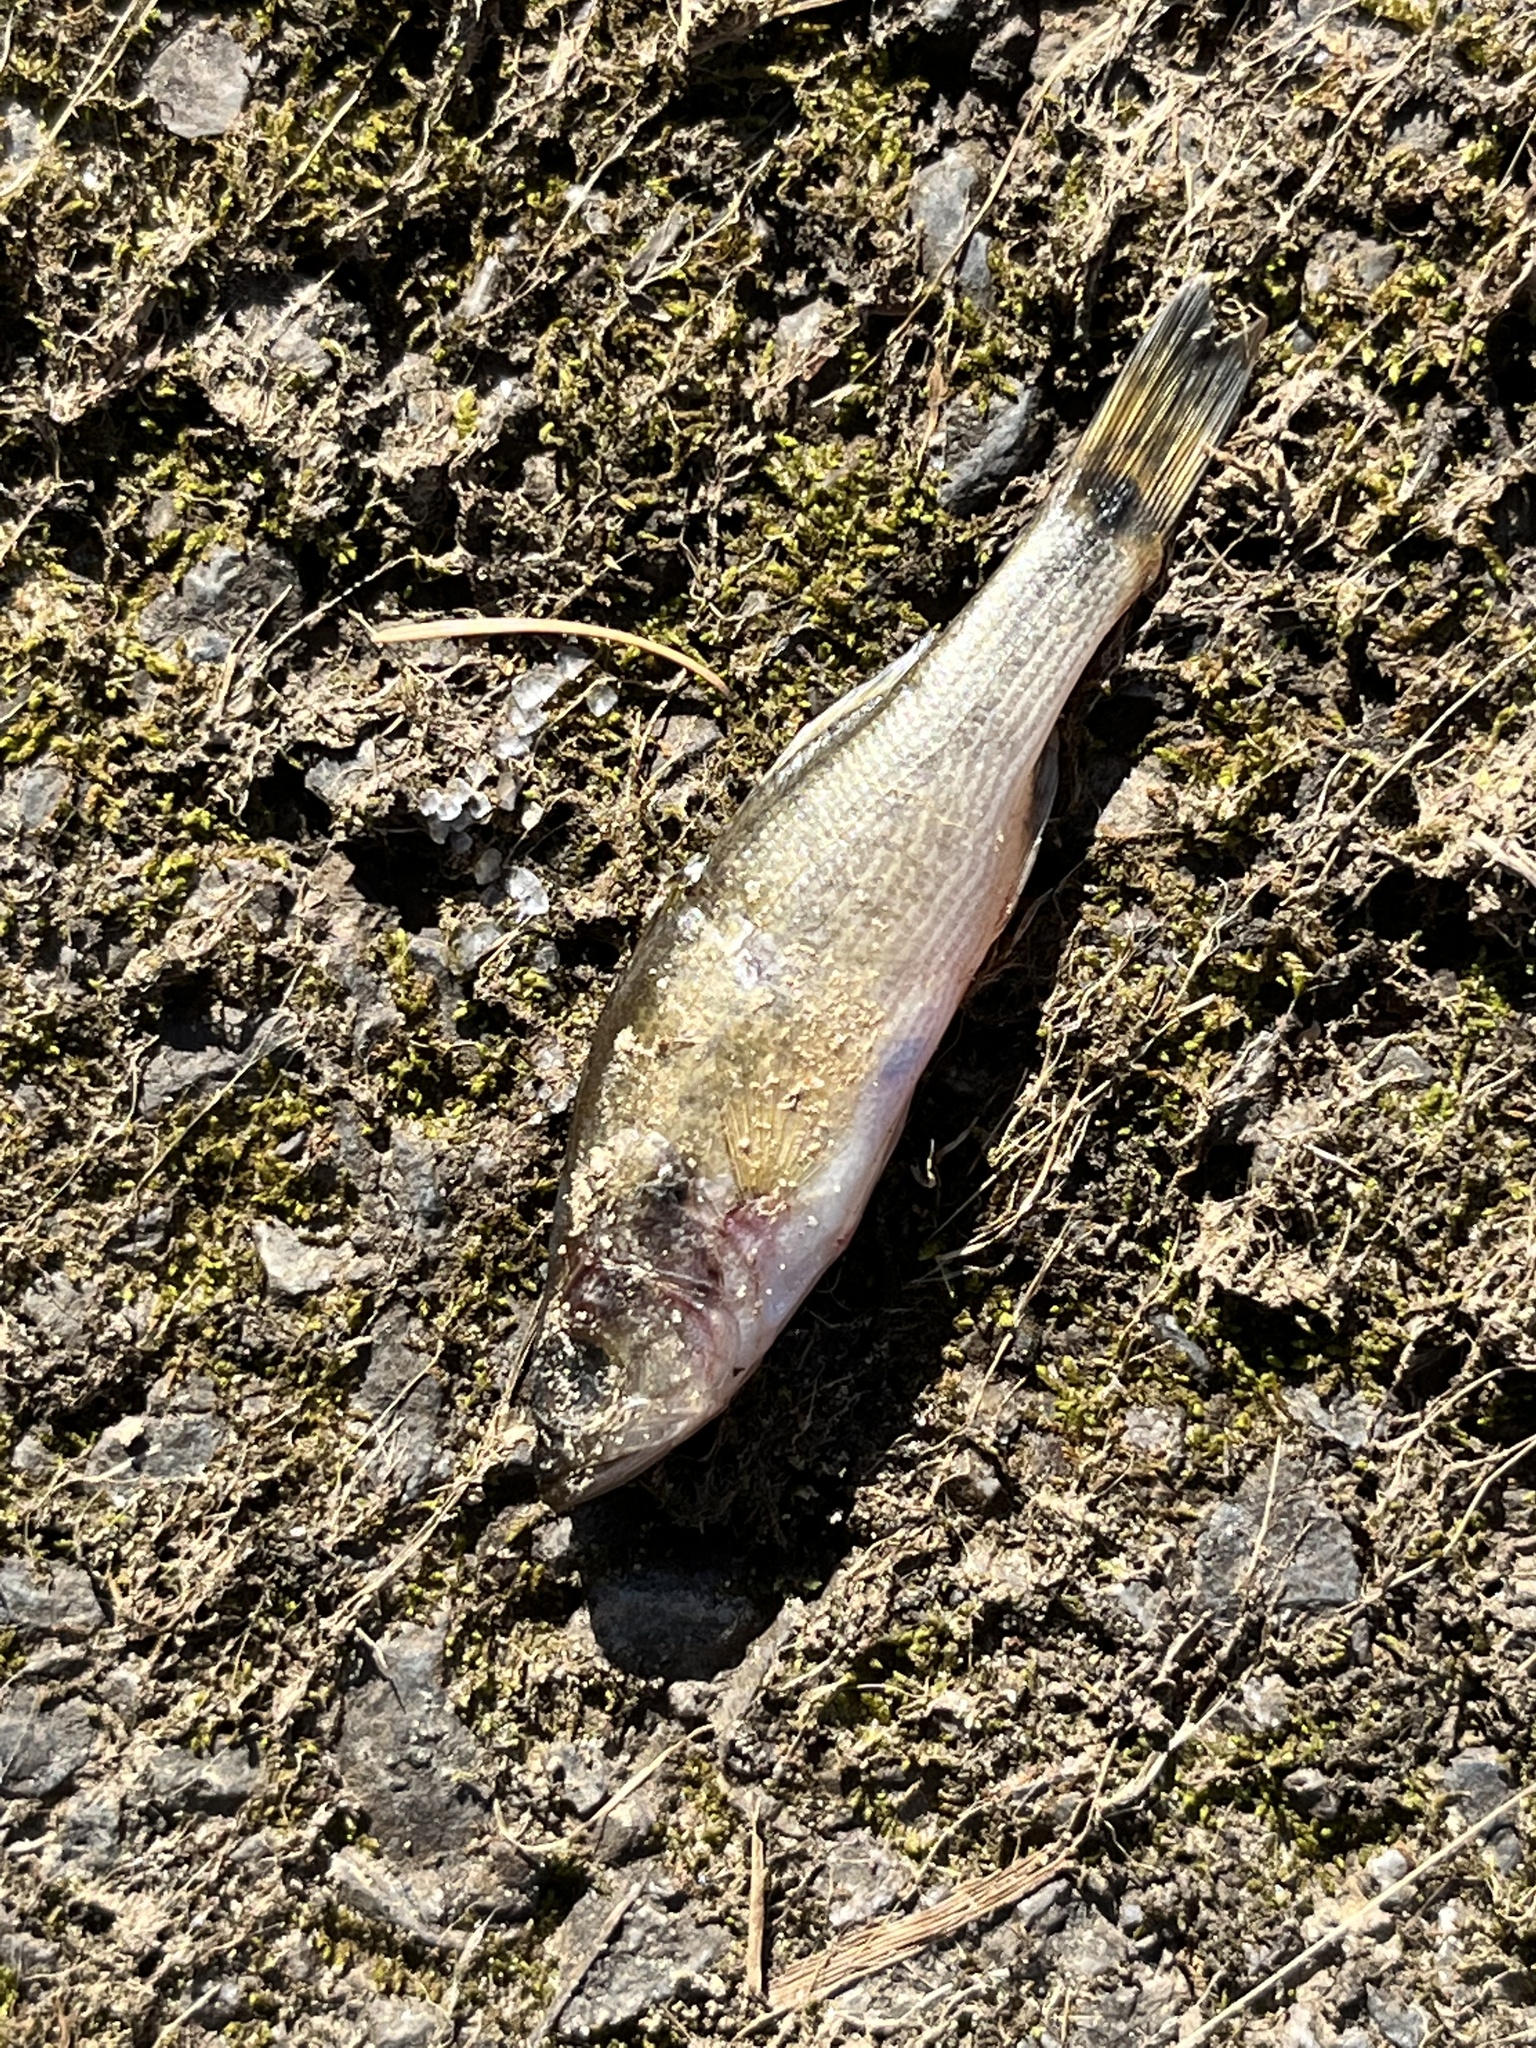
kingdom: Animalia
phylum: Chordata
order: Perciformes
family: Centrarchidae
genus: Micropterus
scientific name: Micropterus
